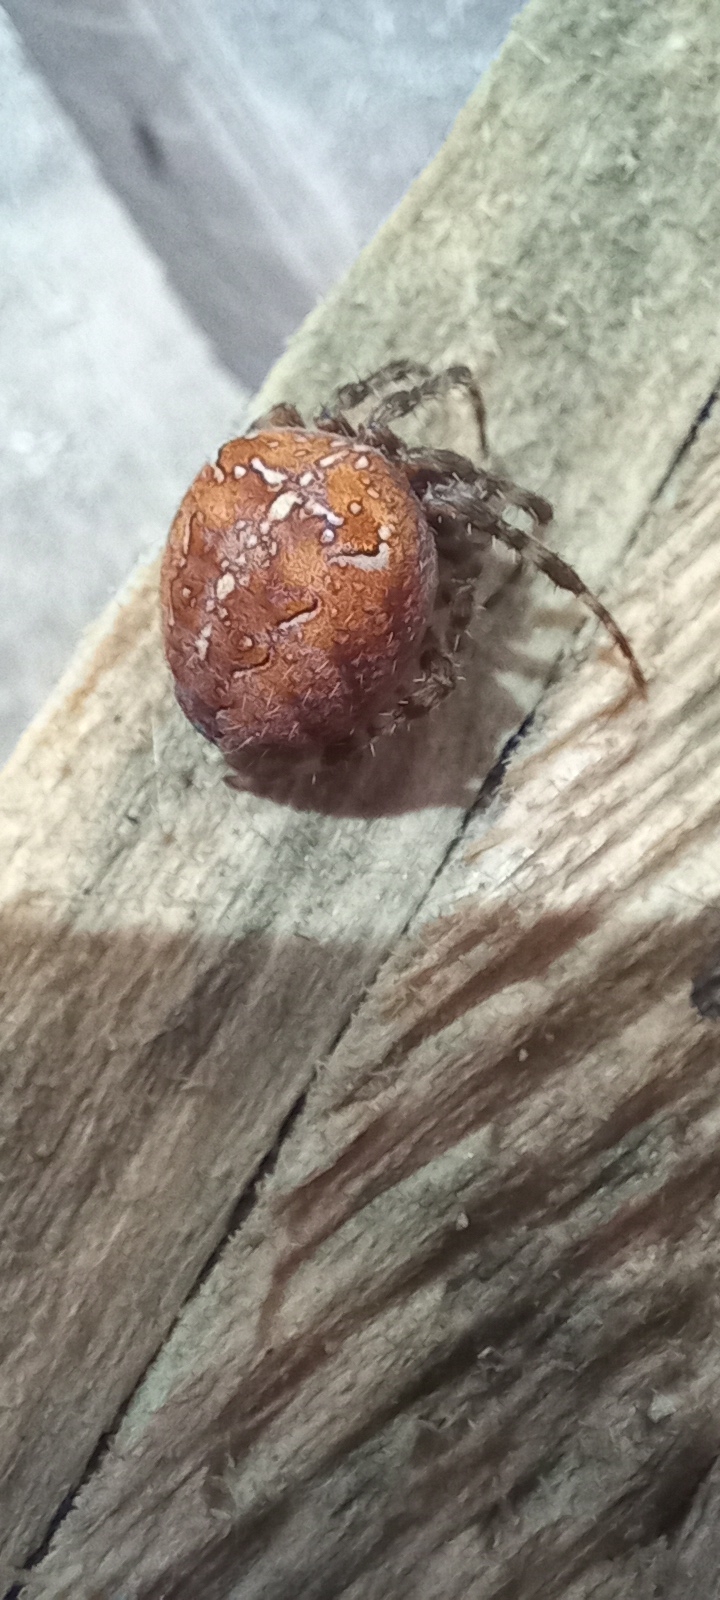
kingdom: Animalia
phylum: Arthropoda
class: Arachnida
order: Araneae
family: Araneidae
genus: Araneus
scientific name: Araneus diadematus
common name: Cross orbweaver
